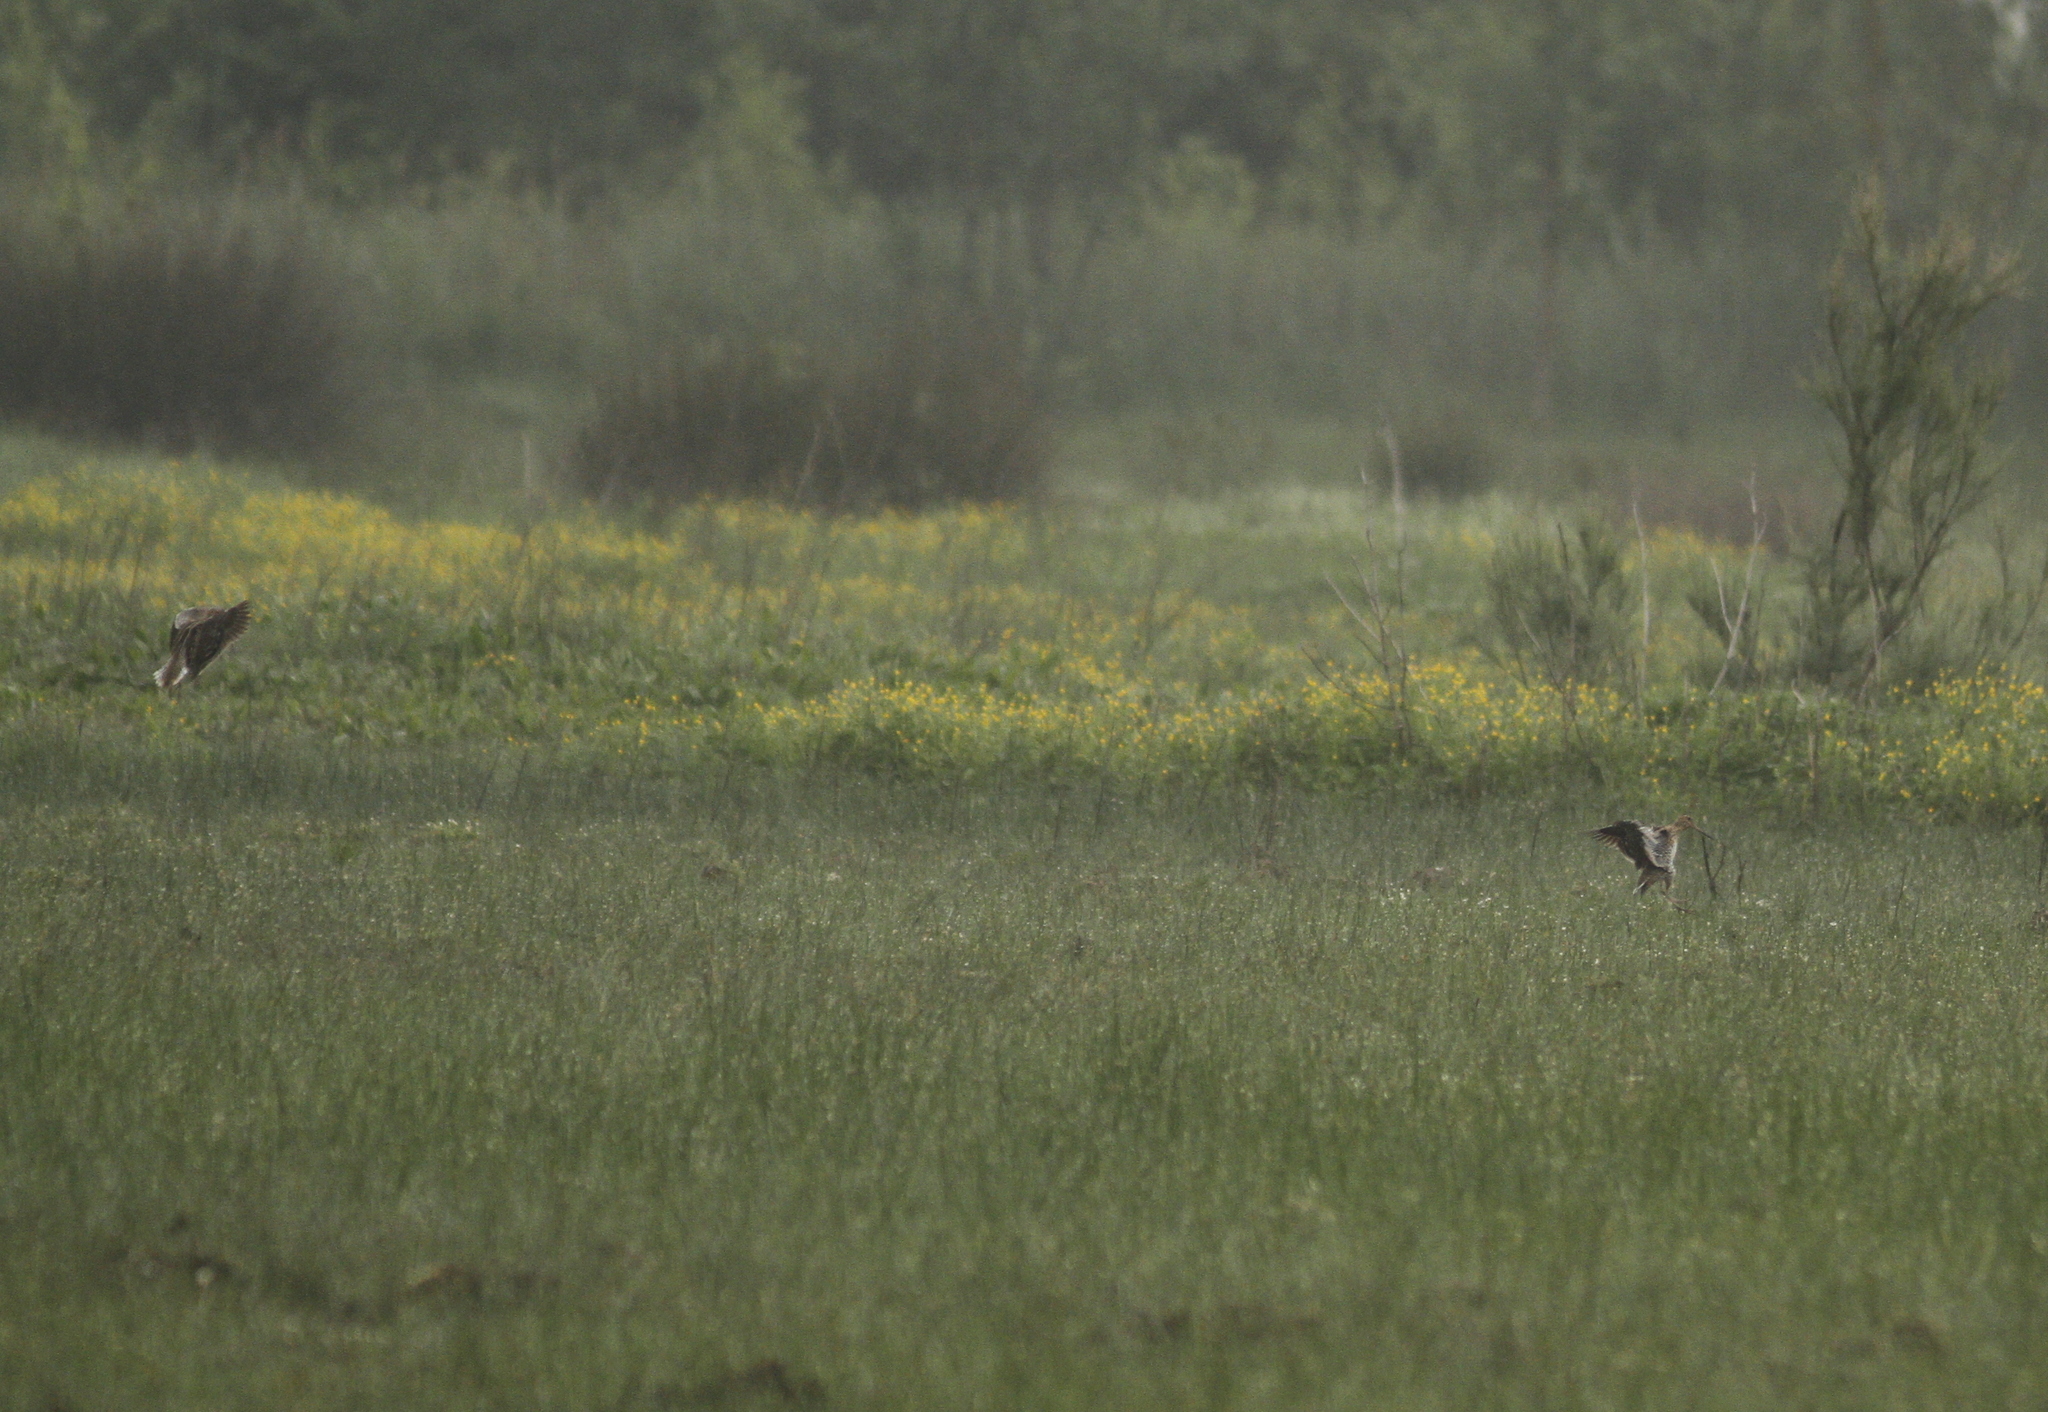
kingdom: Animalia
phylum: Chordata
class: Aves
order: Charadriiformes
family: Scolopacidae
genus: Gallinago
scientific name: Gallinago media
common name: Great snipe
